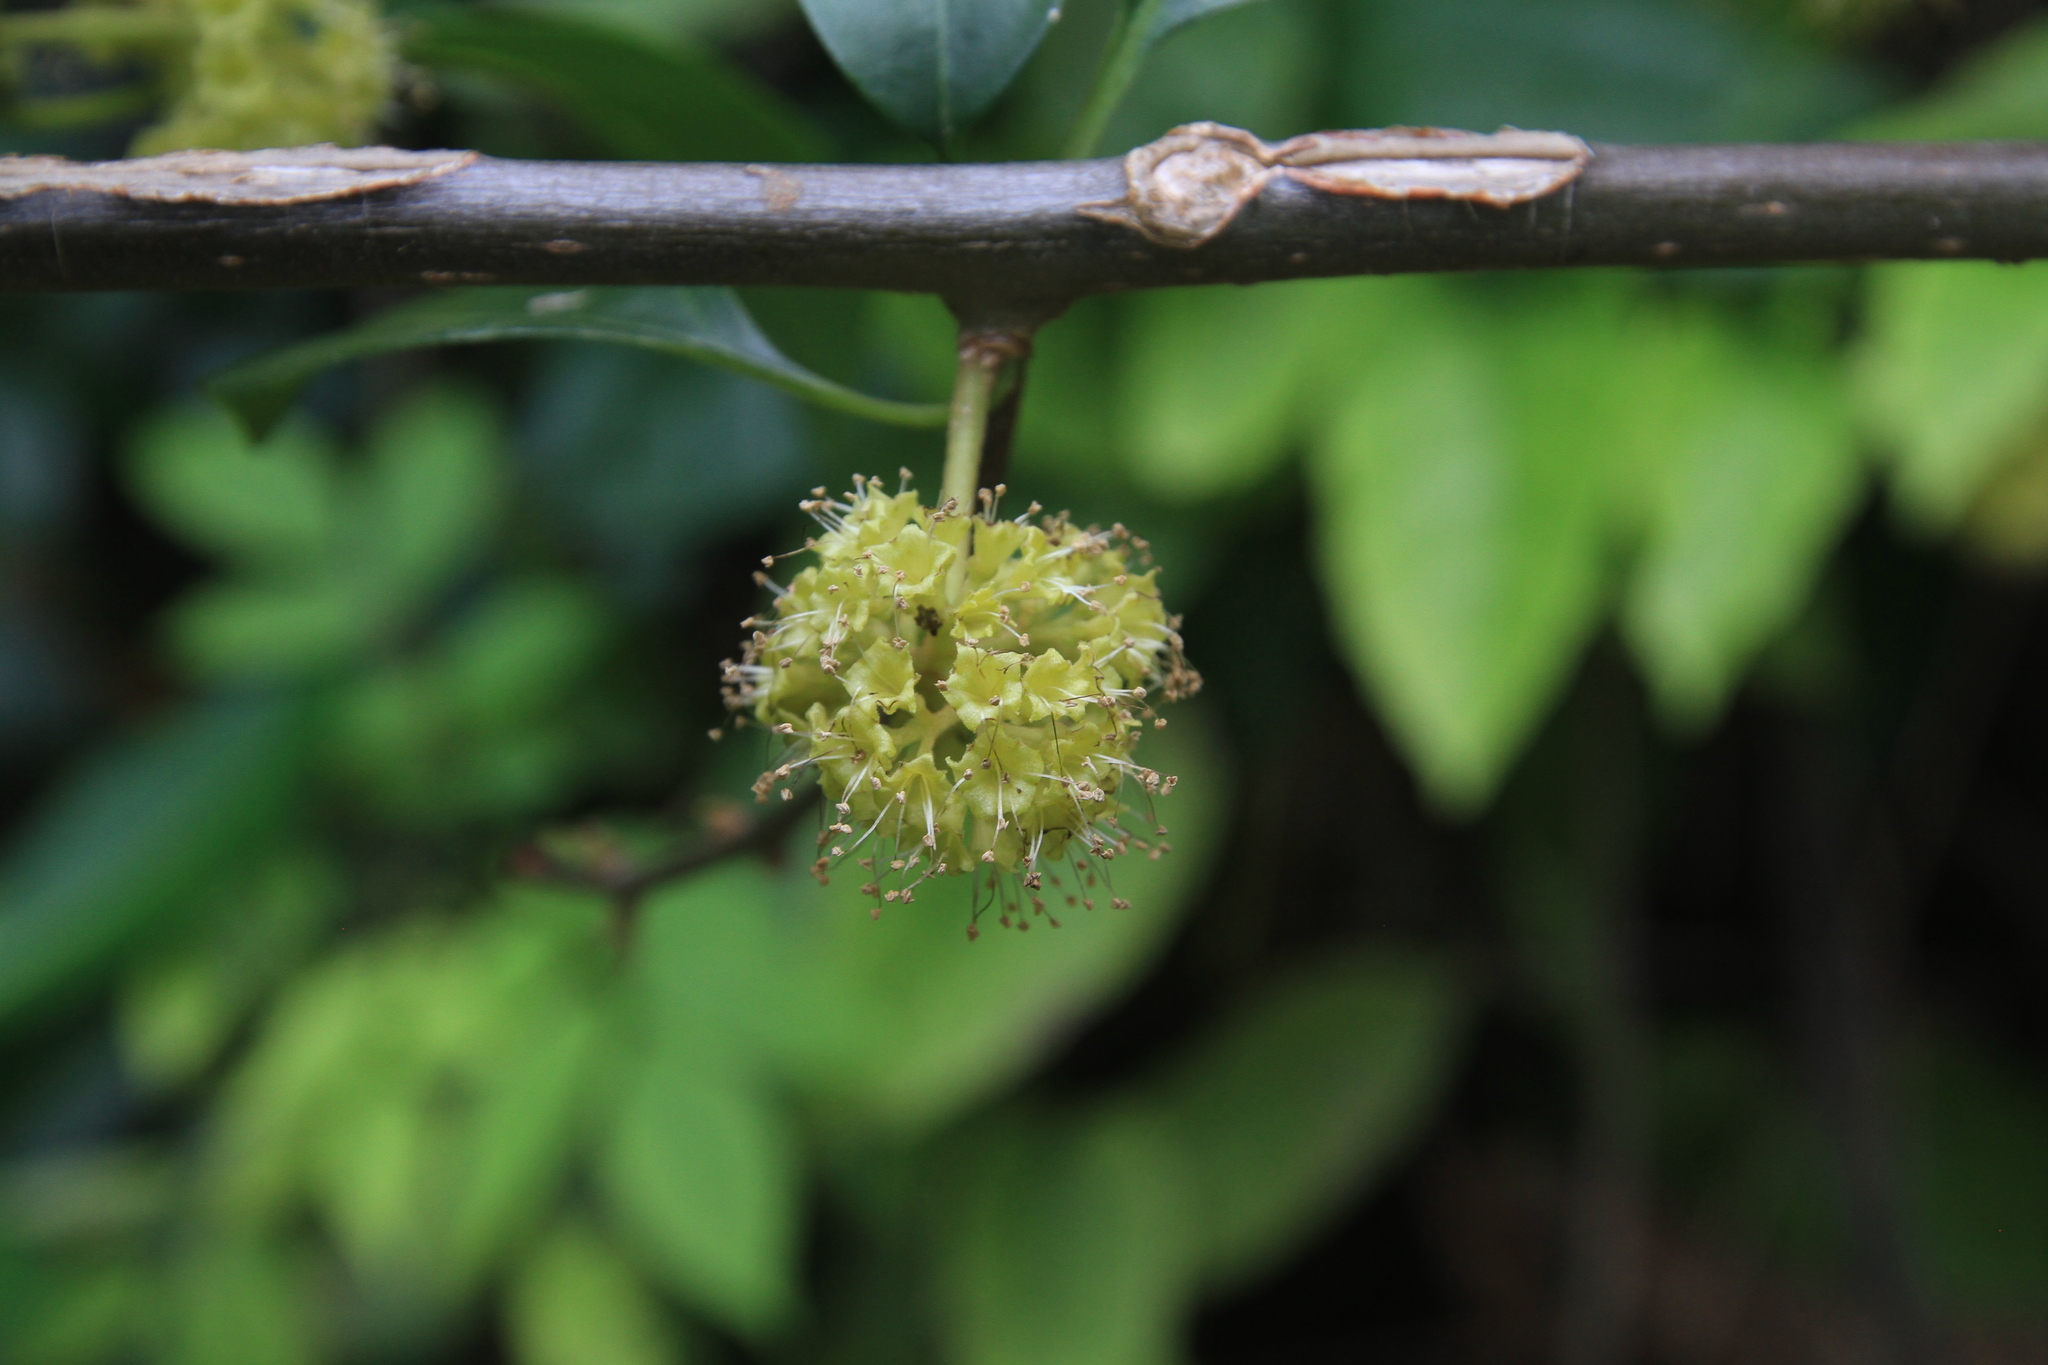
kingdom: Plantae
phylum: Tracheophyta
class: Magnoliopsida
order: Caryophyllales
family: Nyctaginaceae
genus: Pisonia
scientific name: Pisonia aculeata
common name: Cockspur vine
